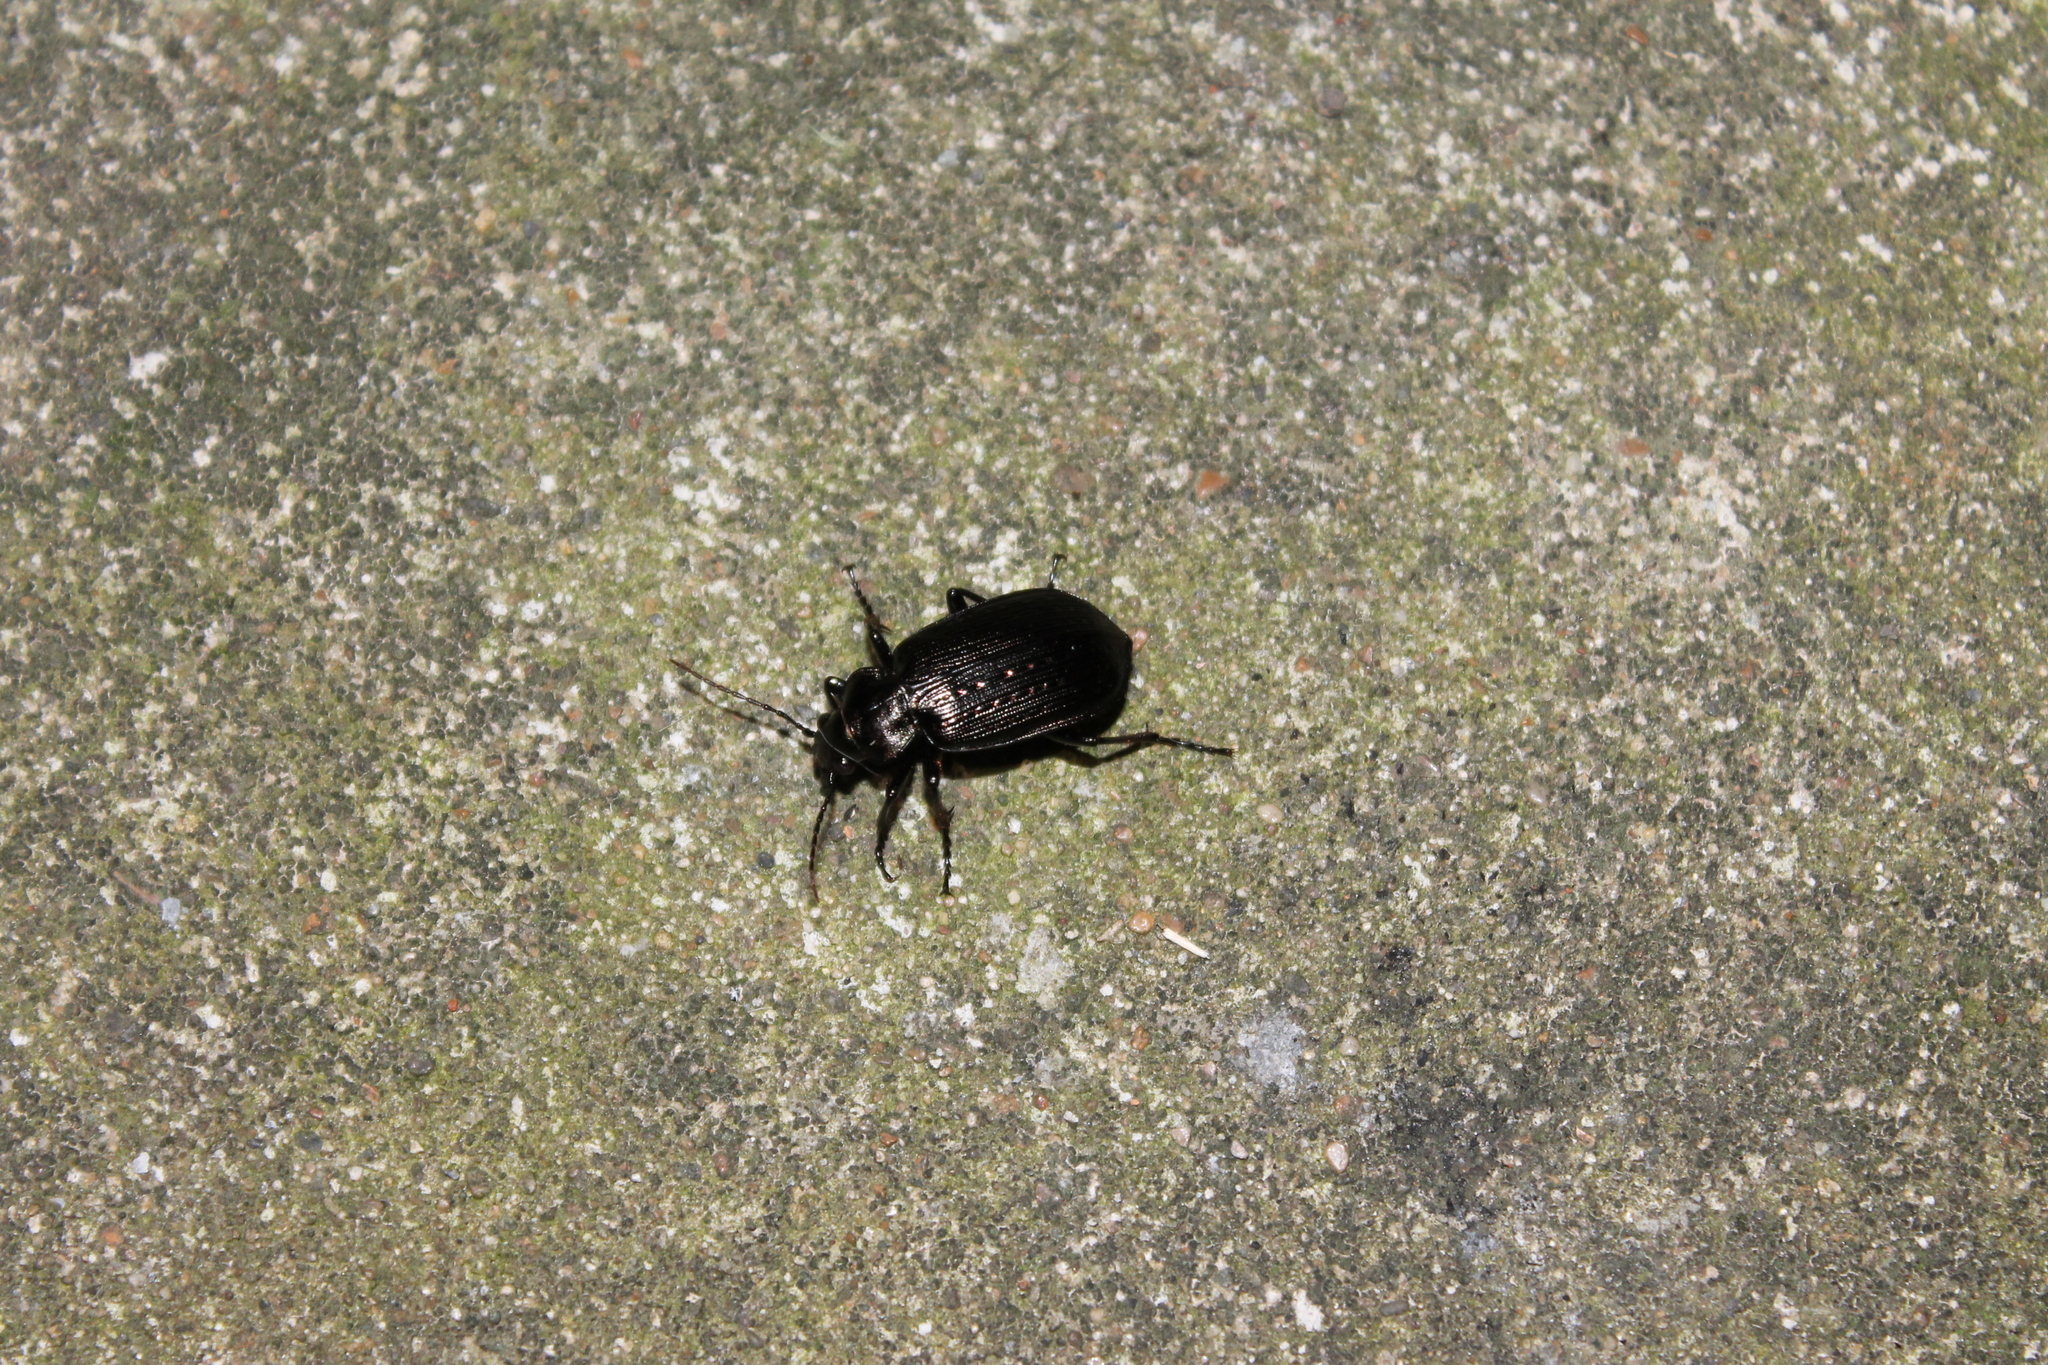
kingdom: Animalia
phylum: Arthropoda
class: Insecta
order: Coleoptera
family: Carabidae
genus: Calosoma
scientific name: Calosoma sayi
